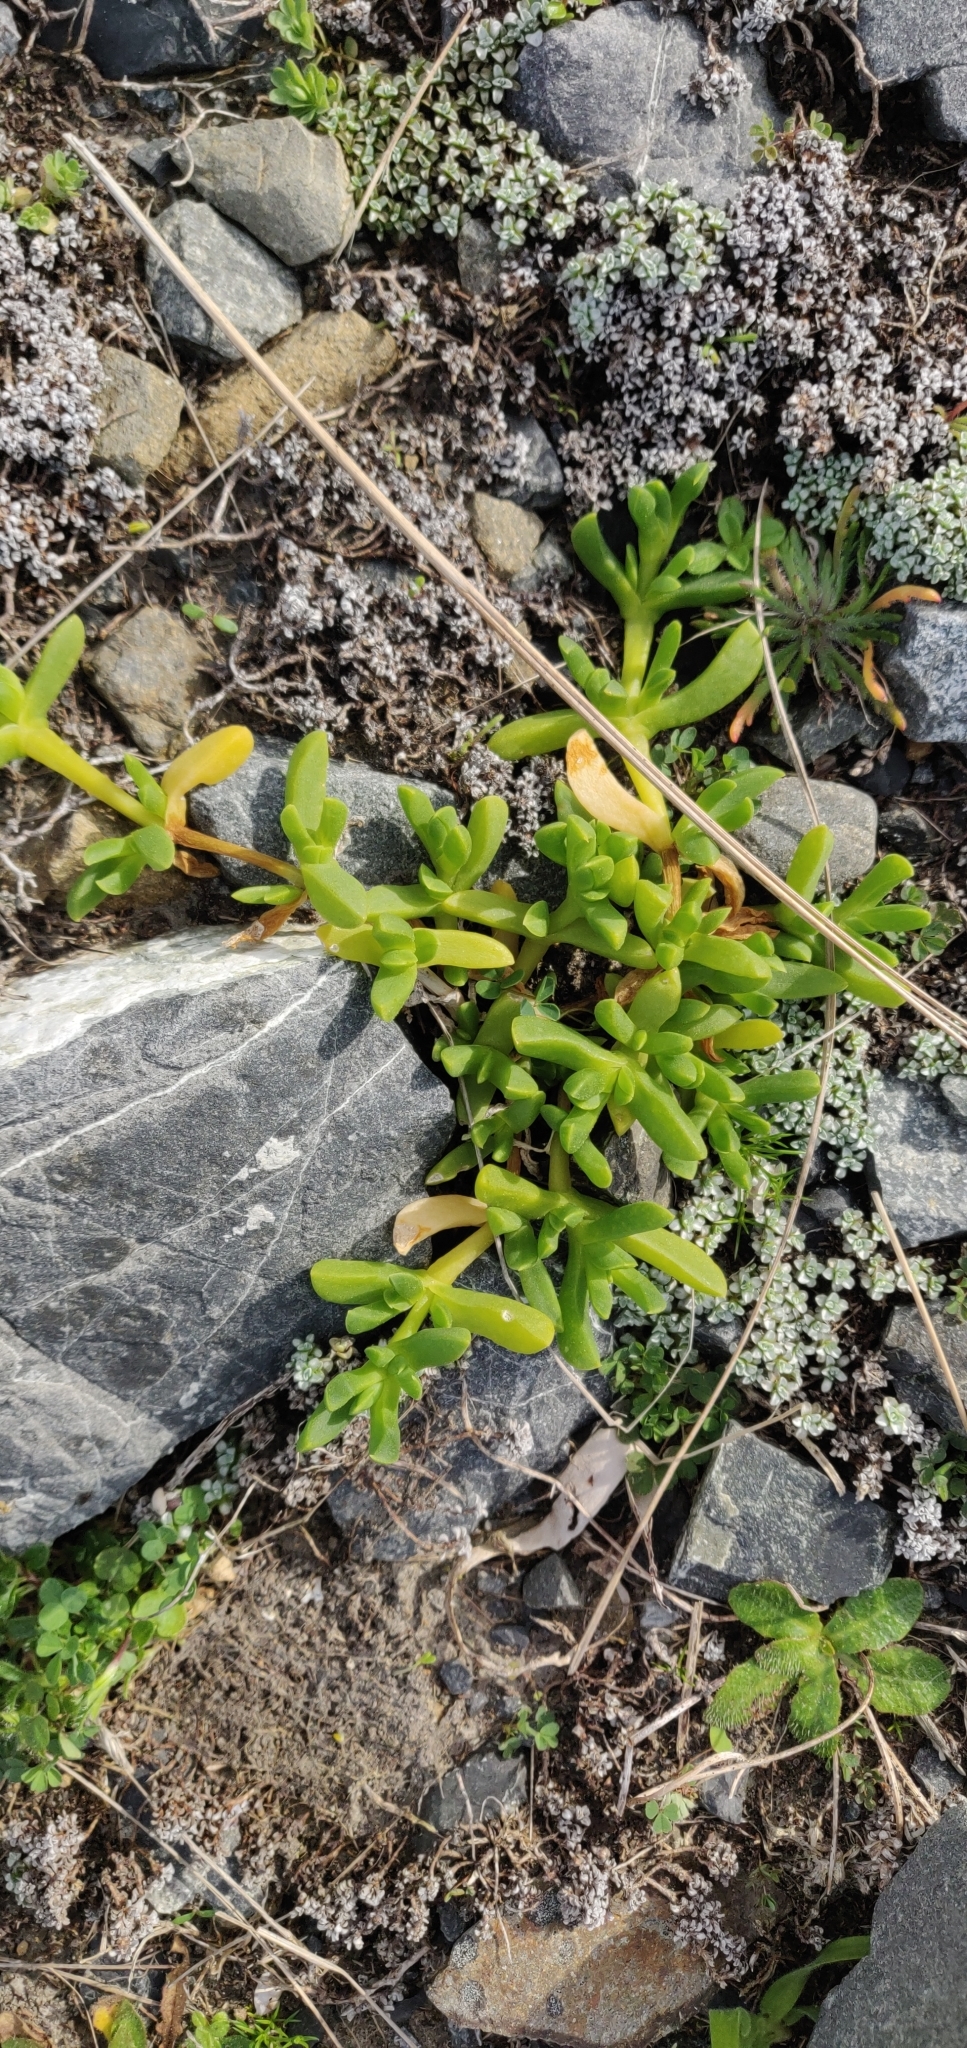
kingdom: Plantae
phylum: Tracheophyta
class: Magnoliopsida
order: Caryophyllales
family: Aizoaceae
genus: Disphyma
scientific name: Disphyma australe
